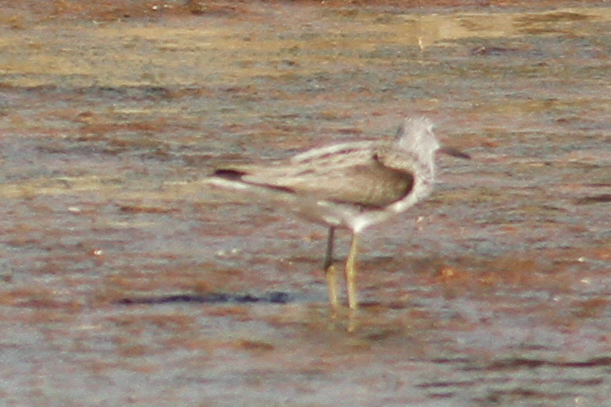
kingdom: Animalia
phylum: Chordata
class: Aves
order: Charadriiformes
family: Scolopacidae
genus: Tringa
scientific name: Tringa nebularia
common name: Common greenshank
